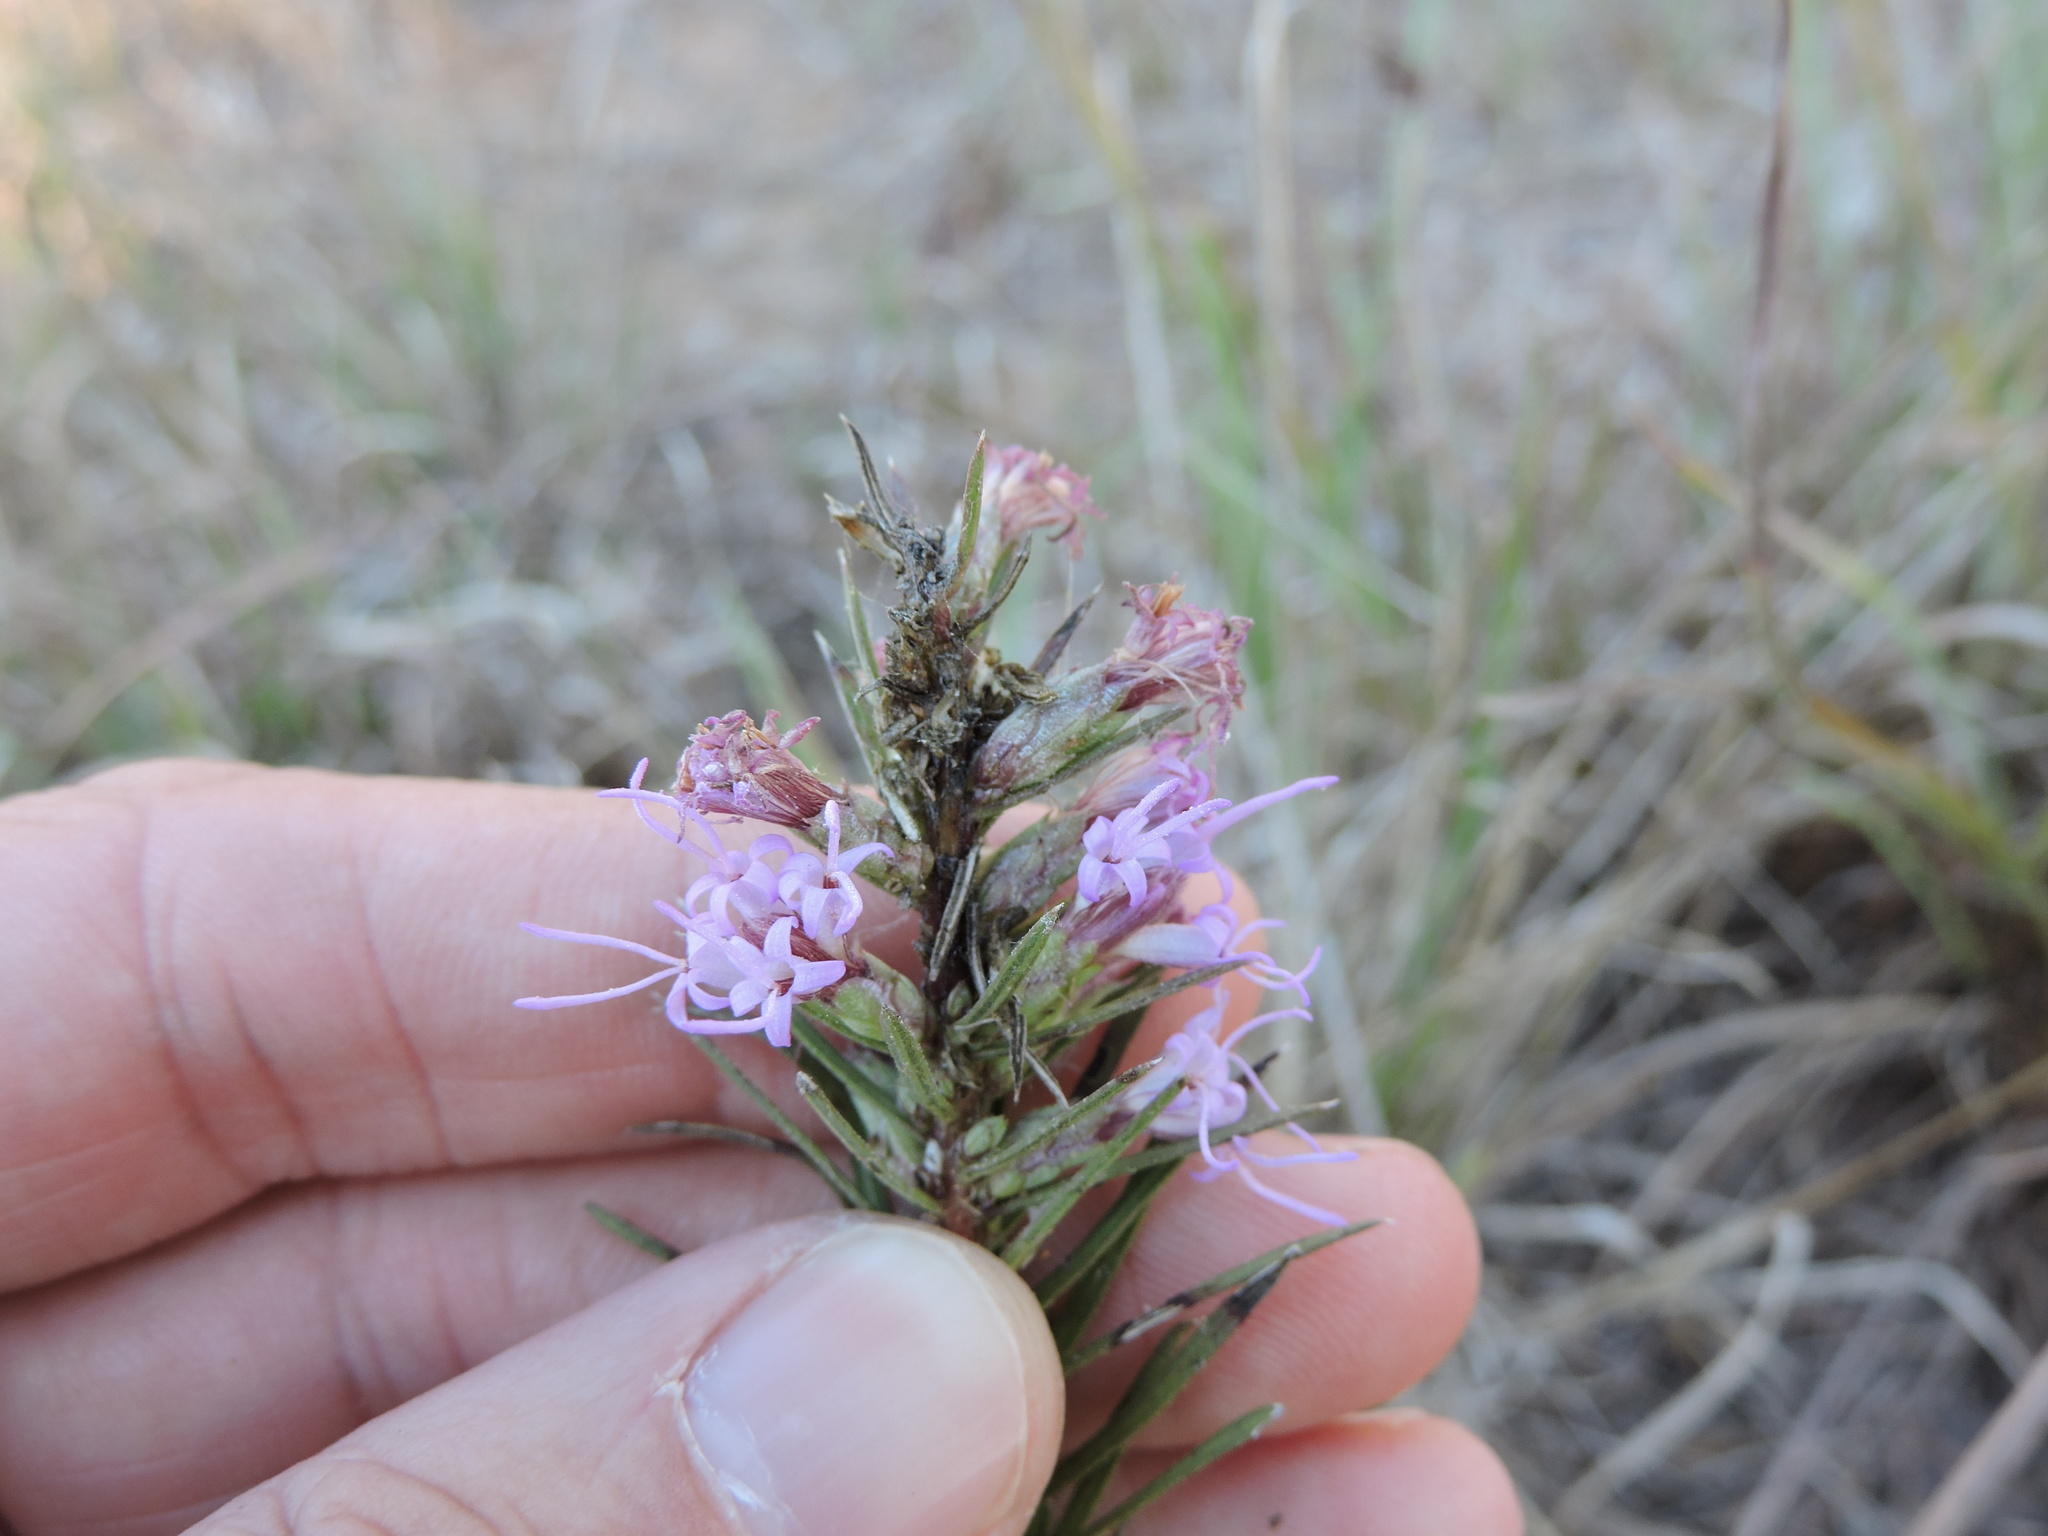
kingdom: Plantae
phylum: Tracheophyta
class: Magnoliopsida
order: Asterales
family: Asteraceae
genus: Liatris
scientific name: Liatris punctata
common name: Dotted gayfeather
